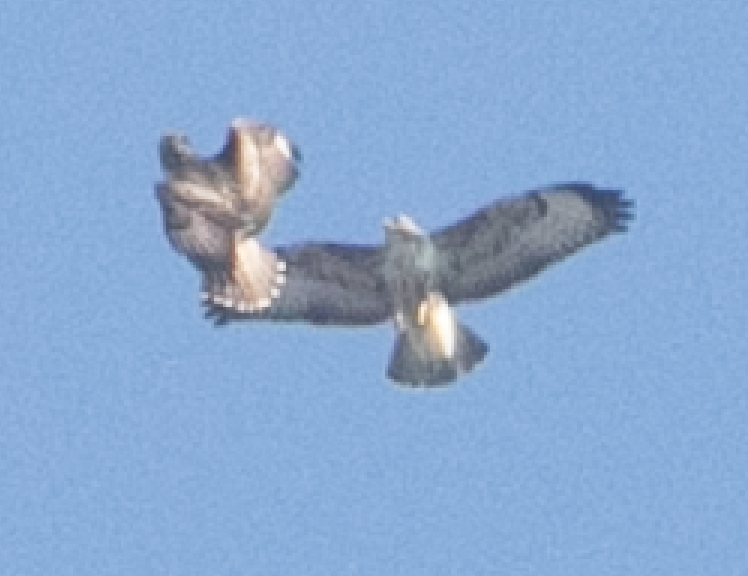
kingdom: Animalia
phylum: Chordata
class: Aves
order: Accipitriformes
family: Accipitridae
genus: Buteo
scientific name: Buteo buteo
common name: Common buzzard
